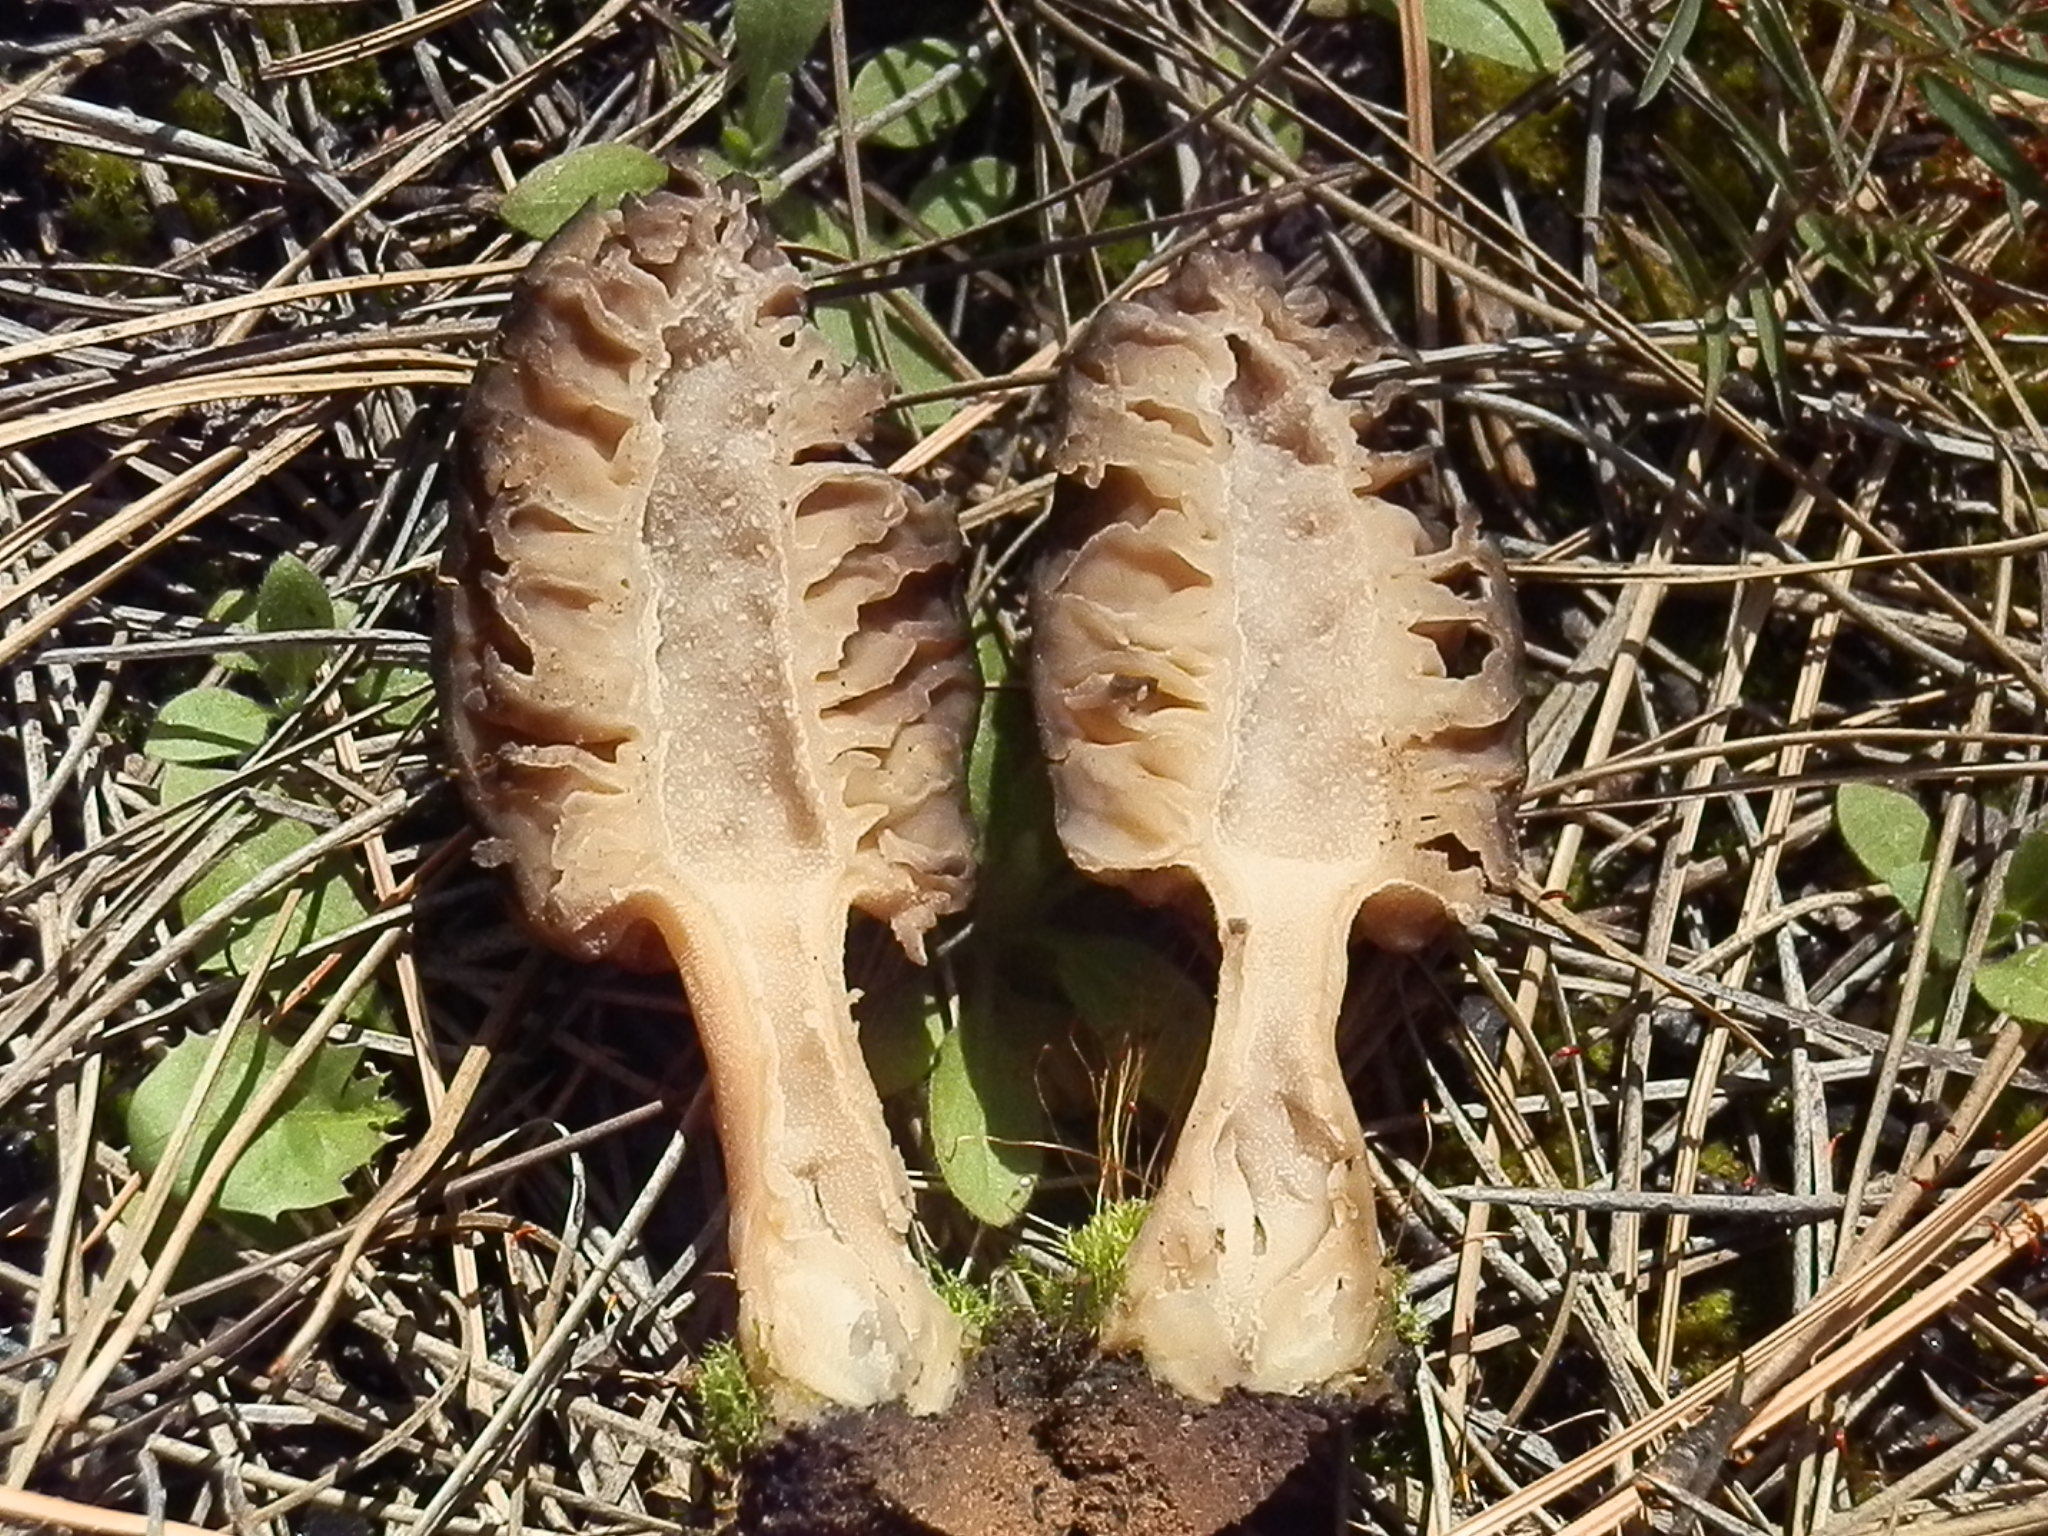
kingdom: Fungi
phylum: Ascomycota
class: Pezizomycetes
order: Pezizales
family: Morchellaceae
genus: Morchella
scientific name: Morchella brunnea
